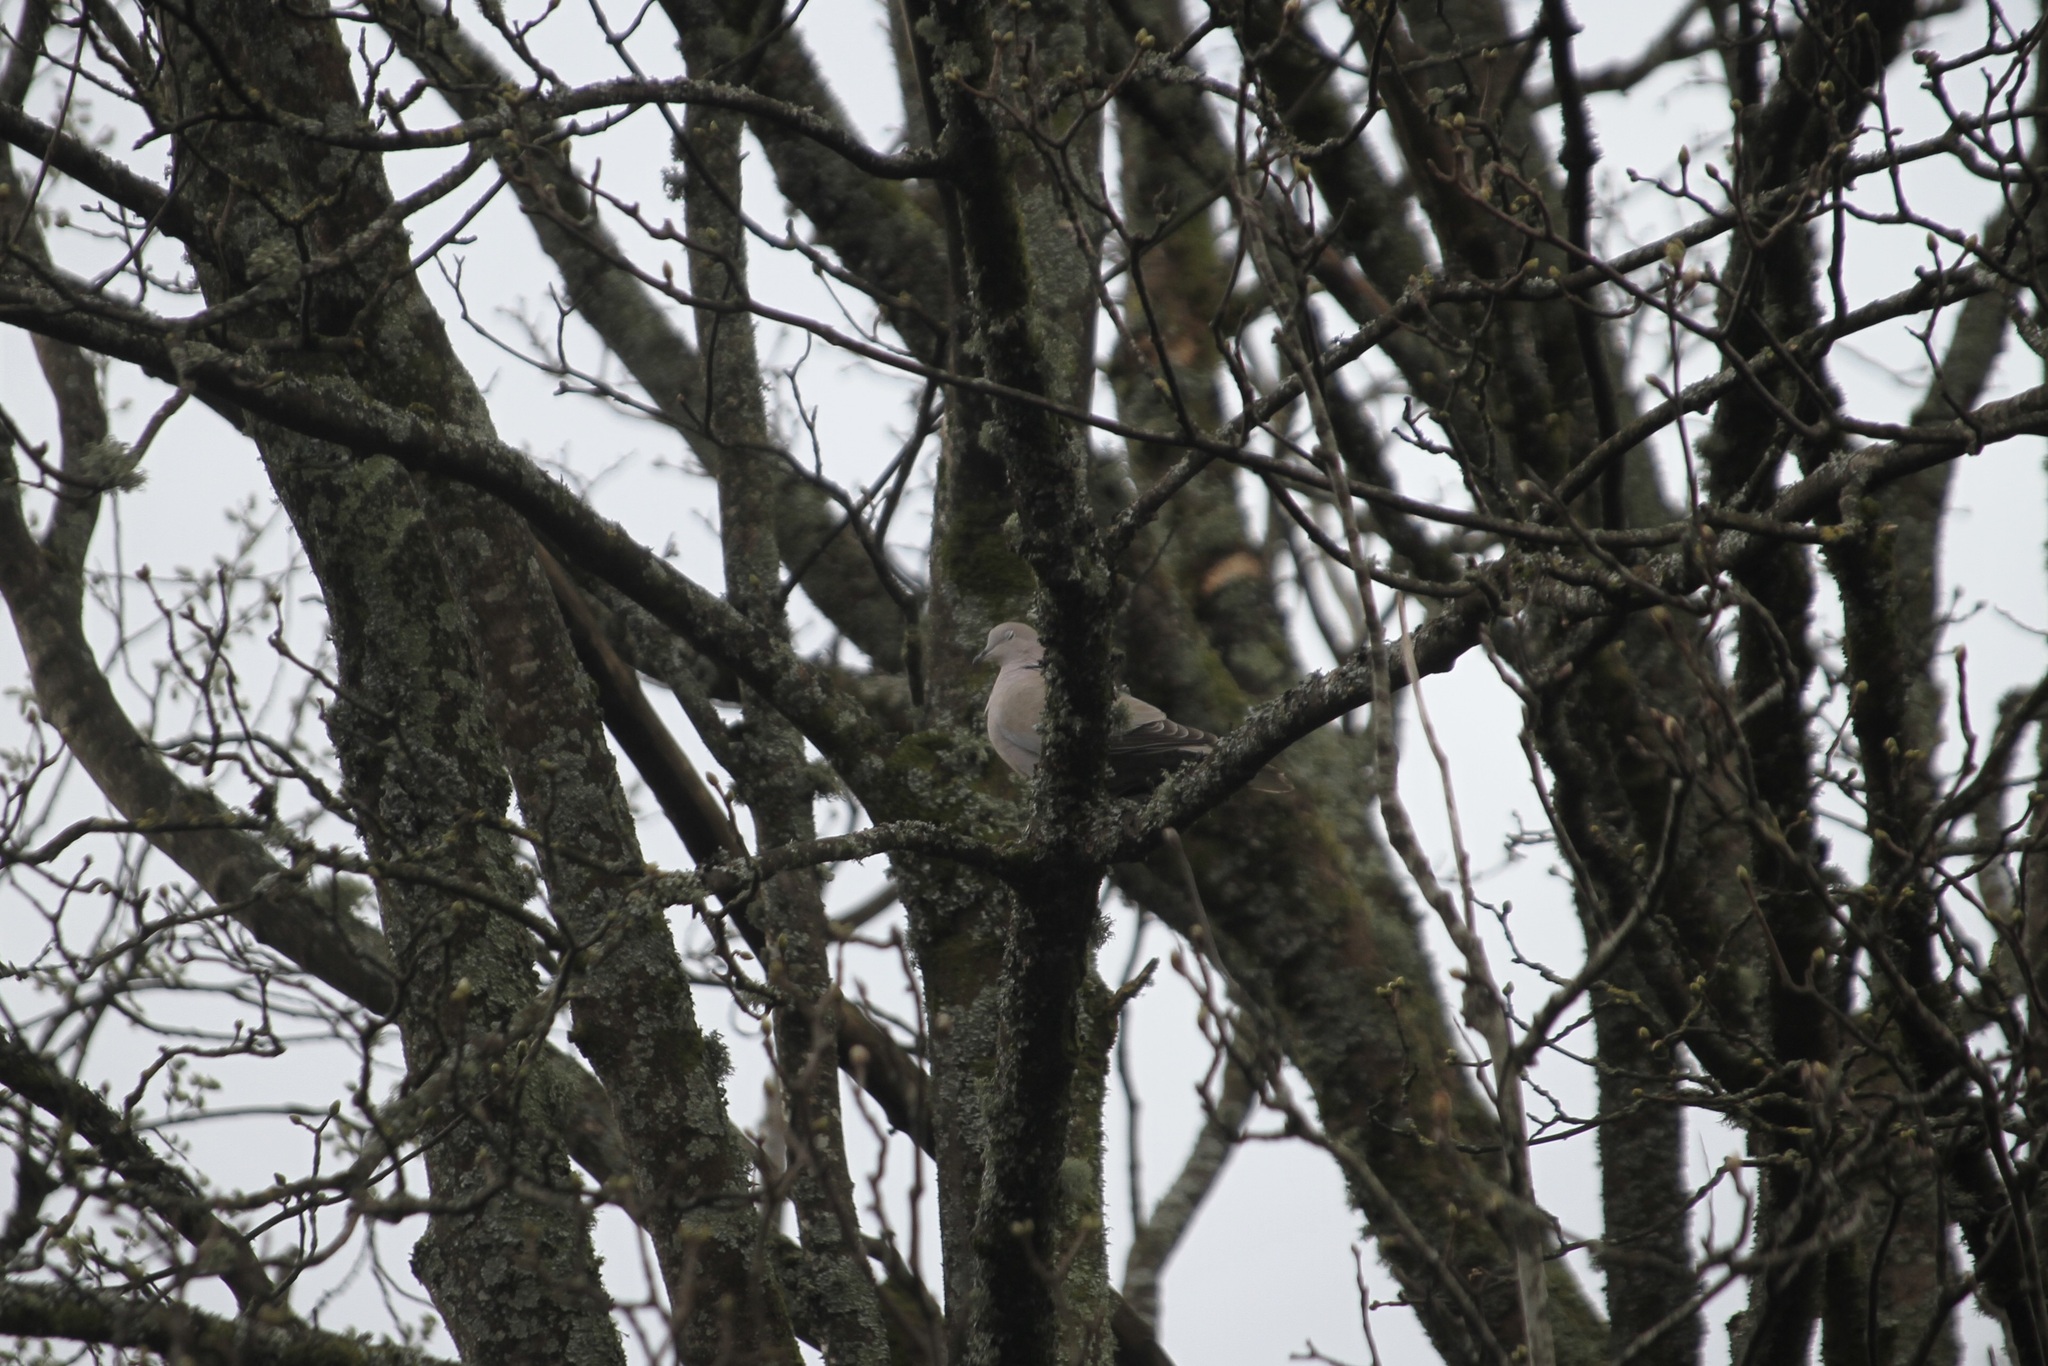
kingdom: Animalia
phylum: Chordata
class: Aves
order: Columbiformes
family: Columbidae
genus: Streptopelia
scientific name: Streptopelia decaocto
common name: Eurasian collared dove
